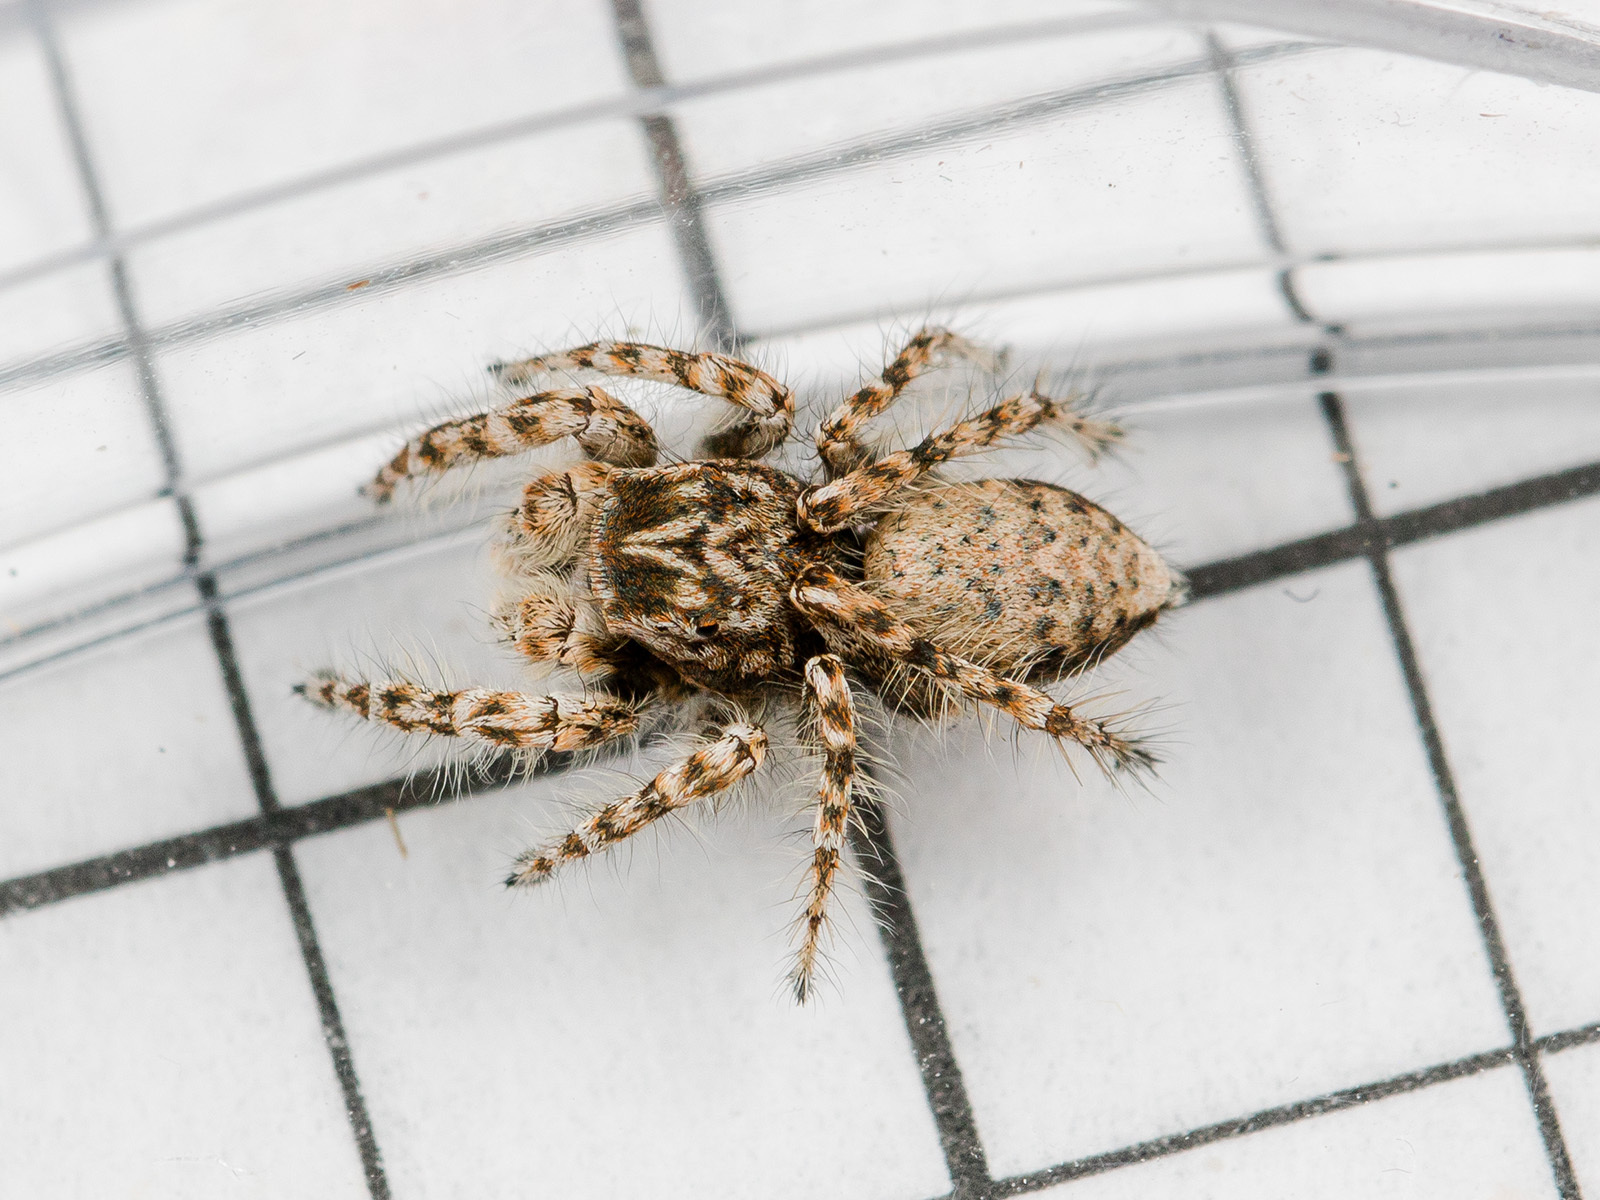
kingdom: Animalia
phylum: Arthropoda
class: Arachnida
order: Araneae
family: Salticidae
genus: Yllenus
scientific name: Yllenus dunini
